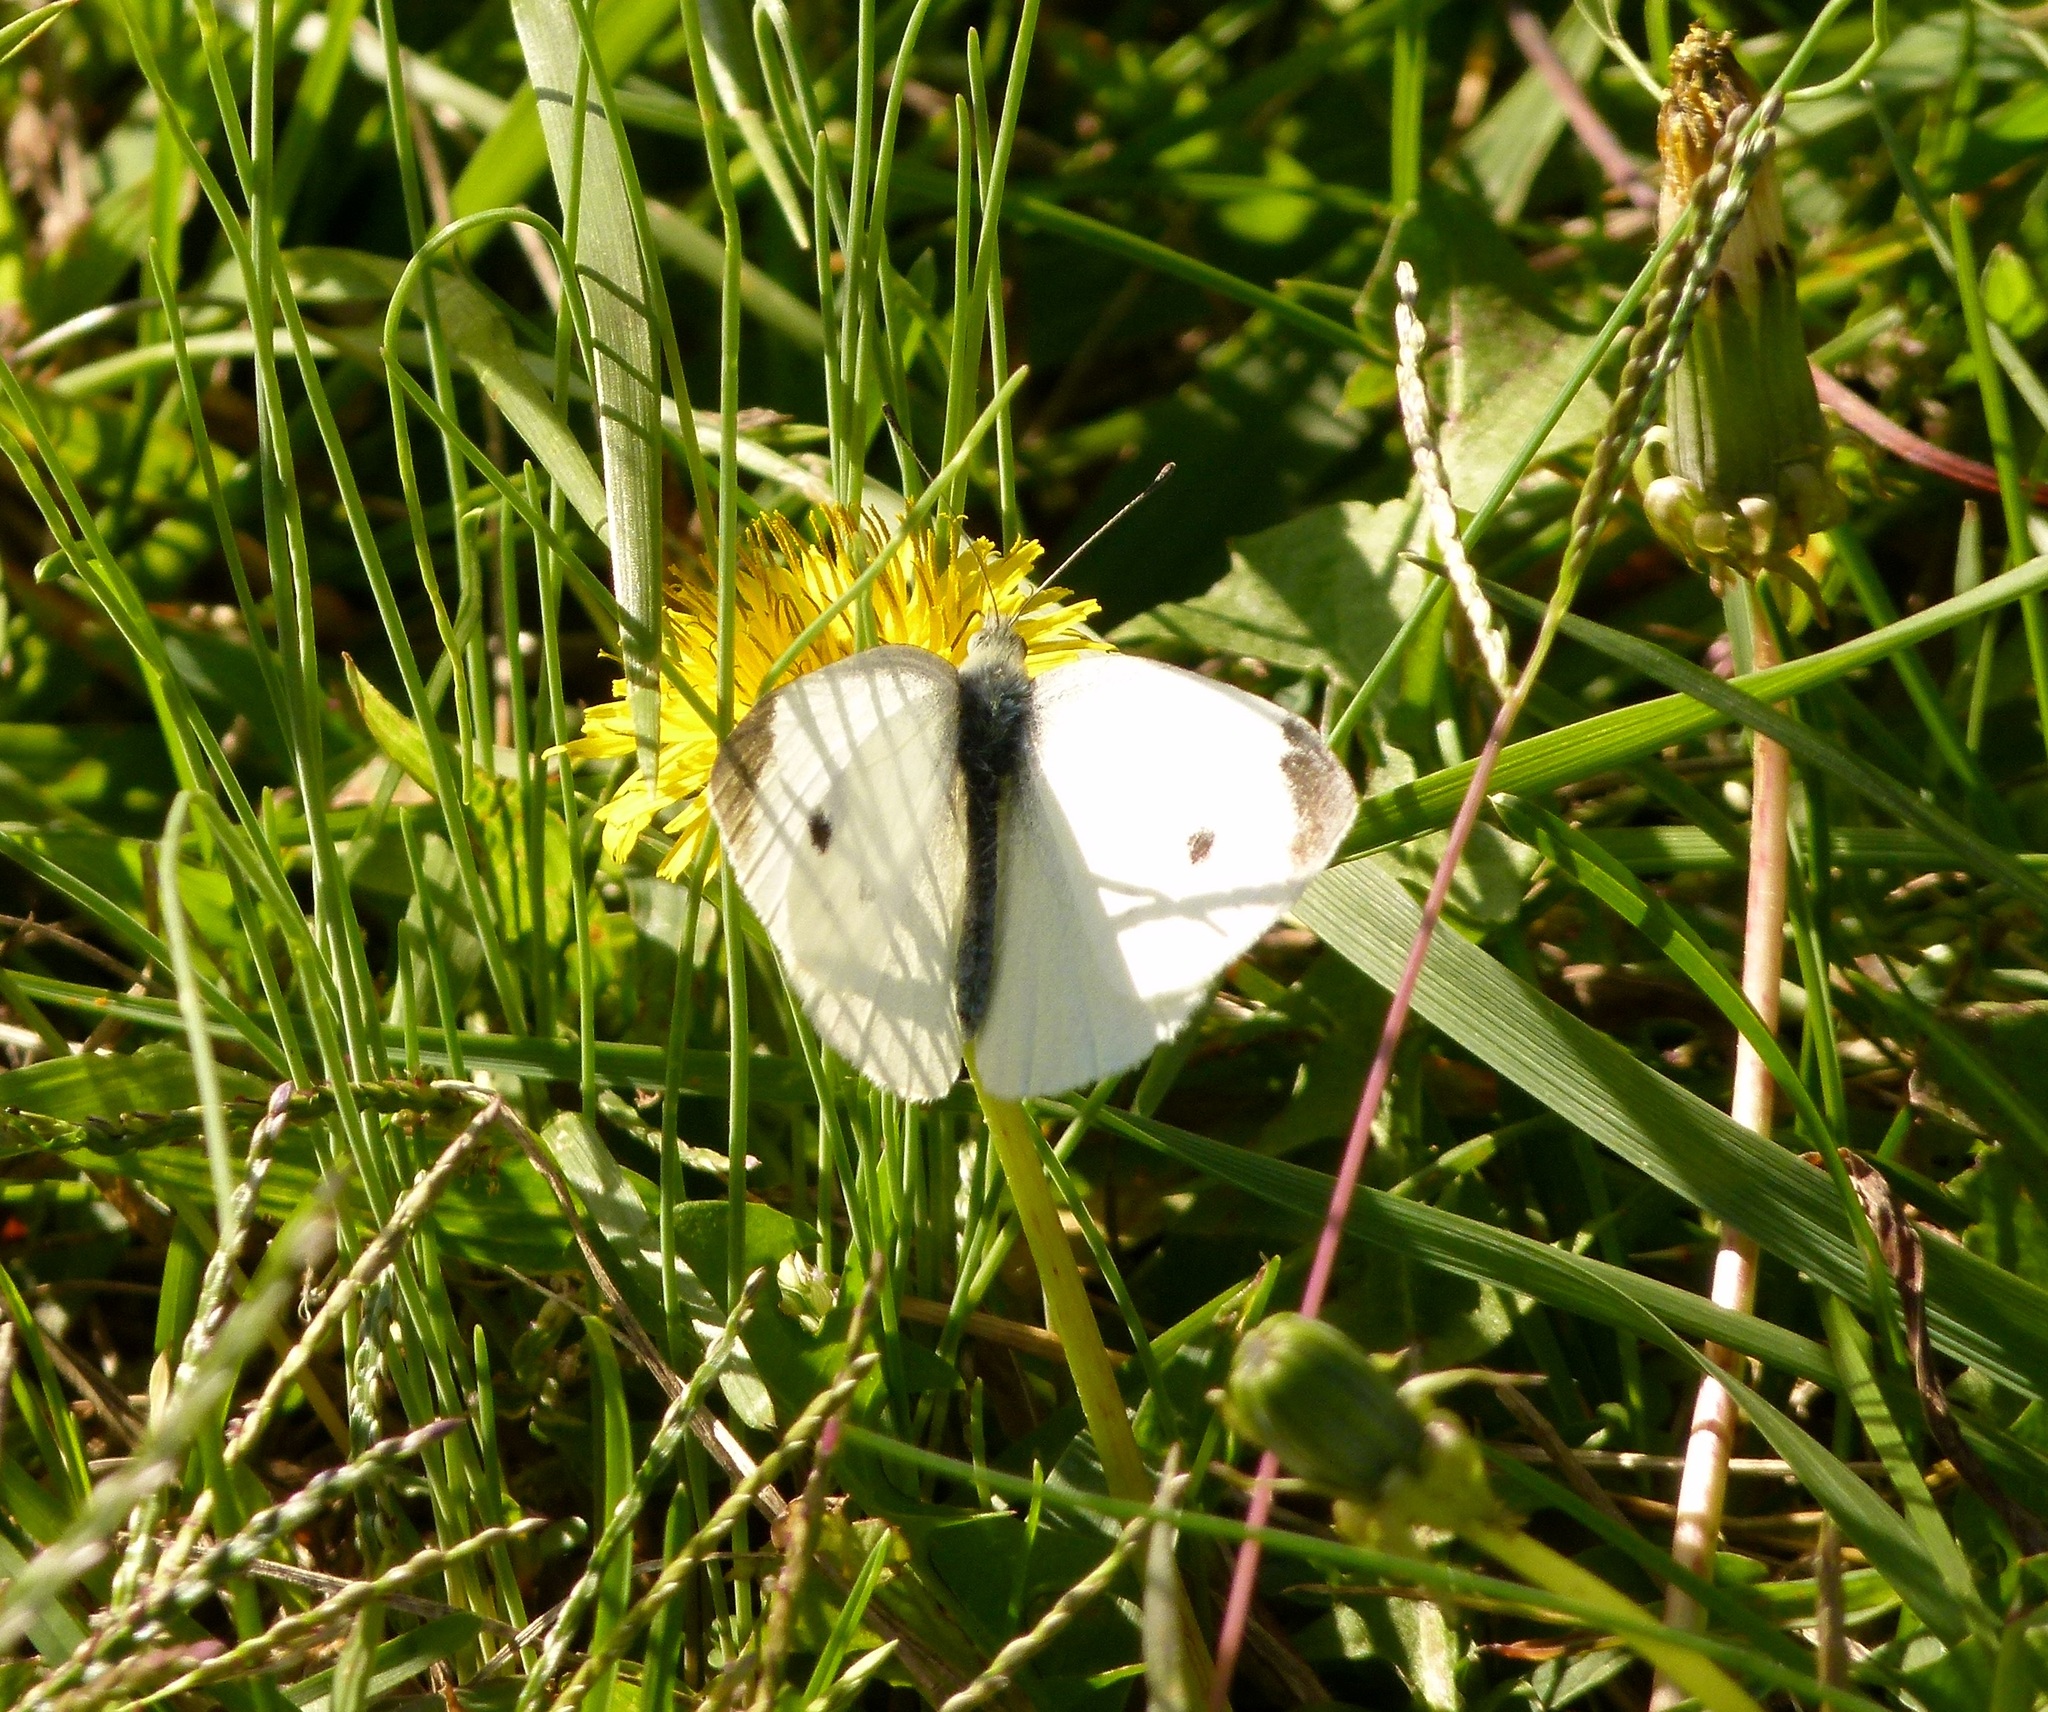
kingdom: Animalia
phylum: Arthropoda
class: Insecta
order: Lepidoptera
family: Pieridae
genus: Pieris
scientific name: Pieris rapae
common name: Small white
